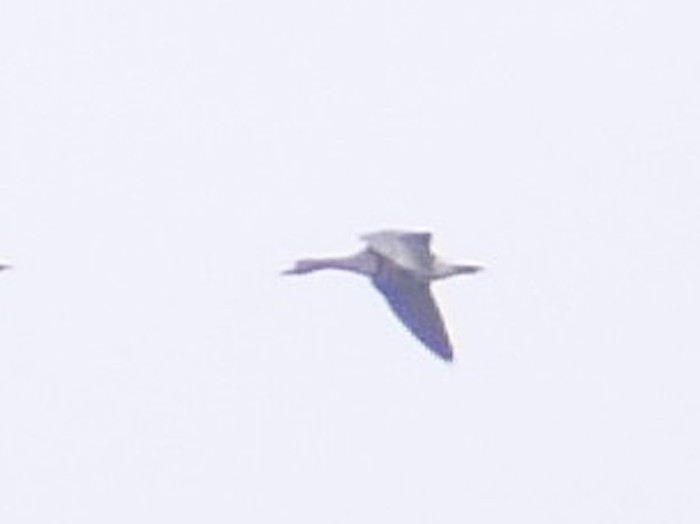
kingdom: Animalia
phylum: Chordata
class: Aves
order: Anseriformes
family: Anatidae
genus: Anser
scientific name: Anser albifrons
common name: Greater white-fronted goose
